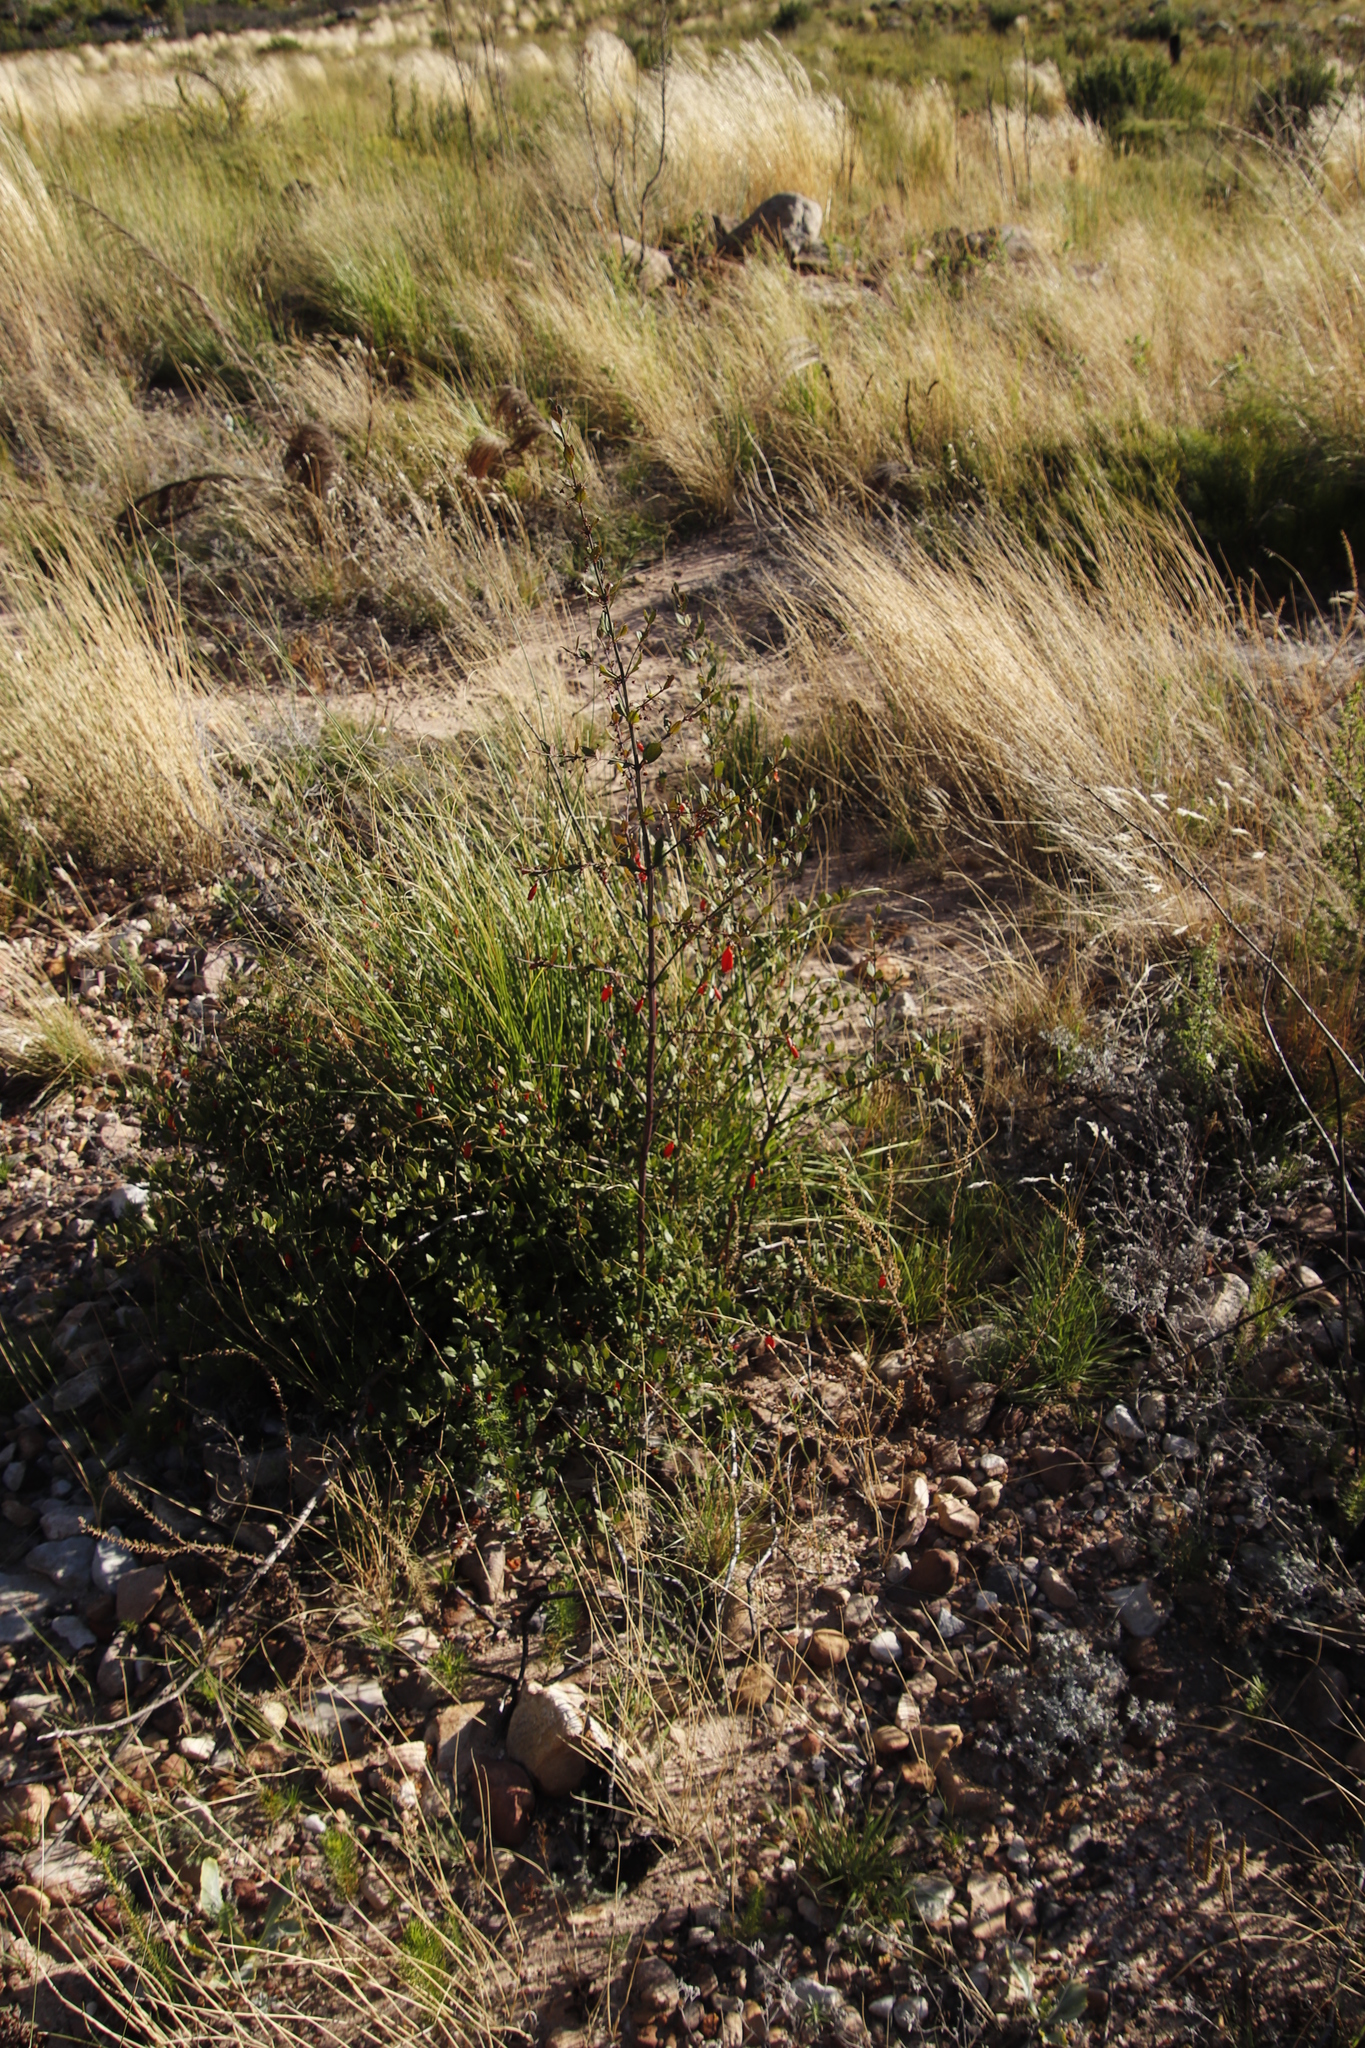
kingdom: Plantae
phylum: Tracheophyta
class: Magnoliopsida
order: Lamiales
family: Stilbaceae
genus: Halleria
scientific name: Halleria elliptica
